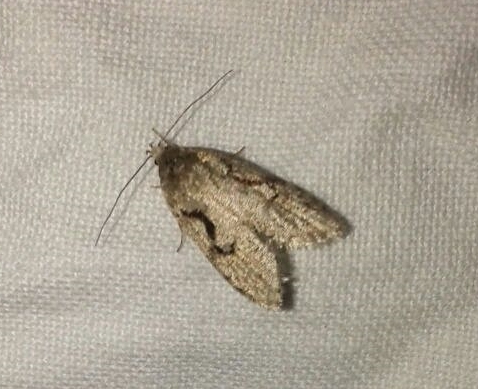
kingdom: Animalia
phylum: Arthropoda
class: Insecta
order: Lepidoptera
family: Depressariidae
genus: Semioscopis
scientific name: Semioscopis steinkellneriana
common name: Dawn flat-body
